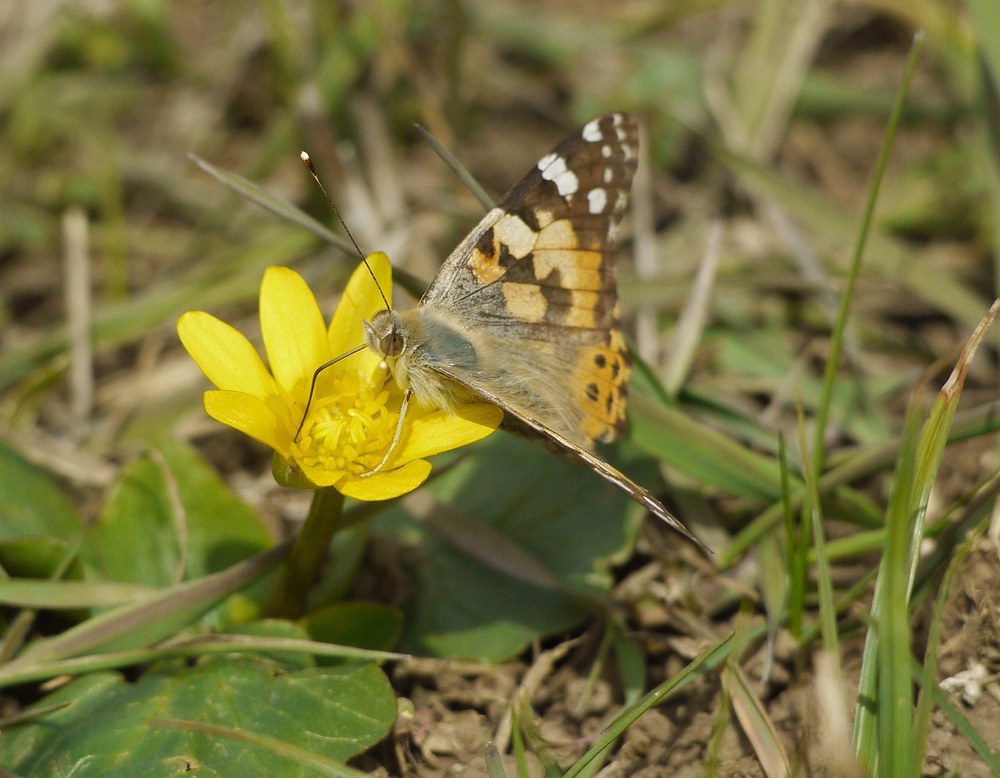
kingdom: Animalia
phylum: Arthropoda
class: Insecta
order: Lepidoptera
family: Nymphalidae
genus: Vanessa
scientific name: Vanessa cardui
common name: Painted lady
